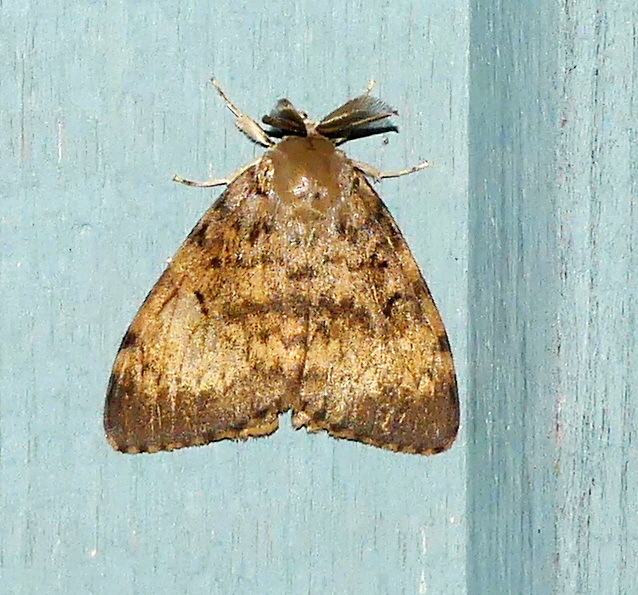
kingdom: Animalia
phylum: Arthropoda
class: Insecta
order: Lepidoptera
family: Erebidae
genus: Lymantria
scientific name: Lymantria dispar
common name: Gypsy moth
